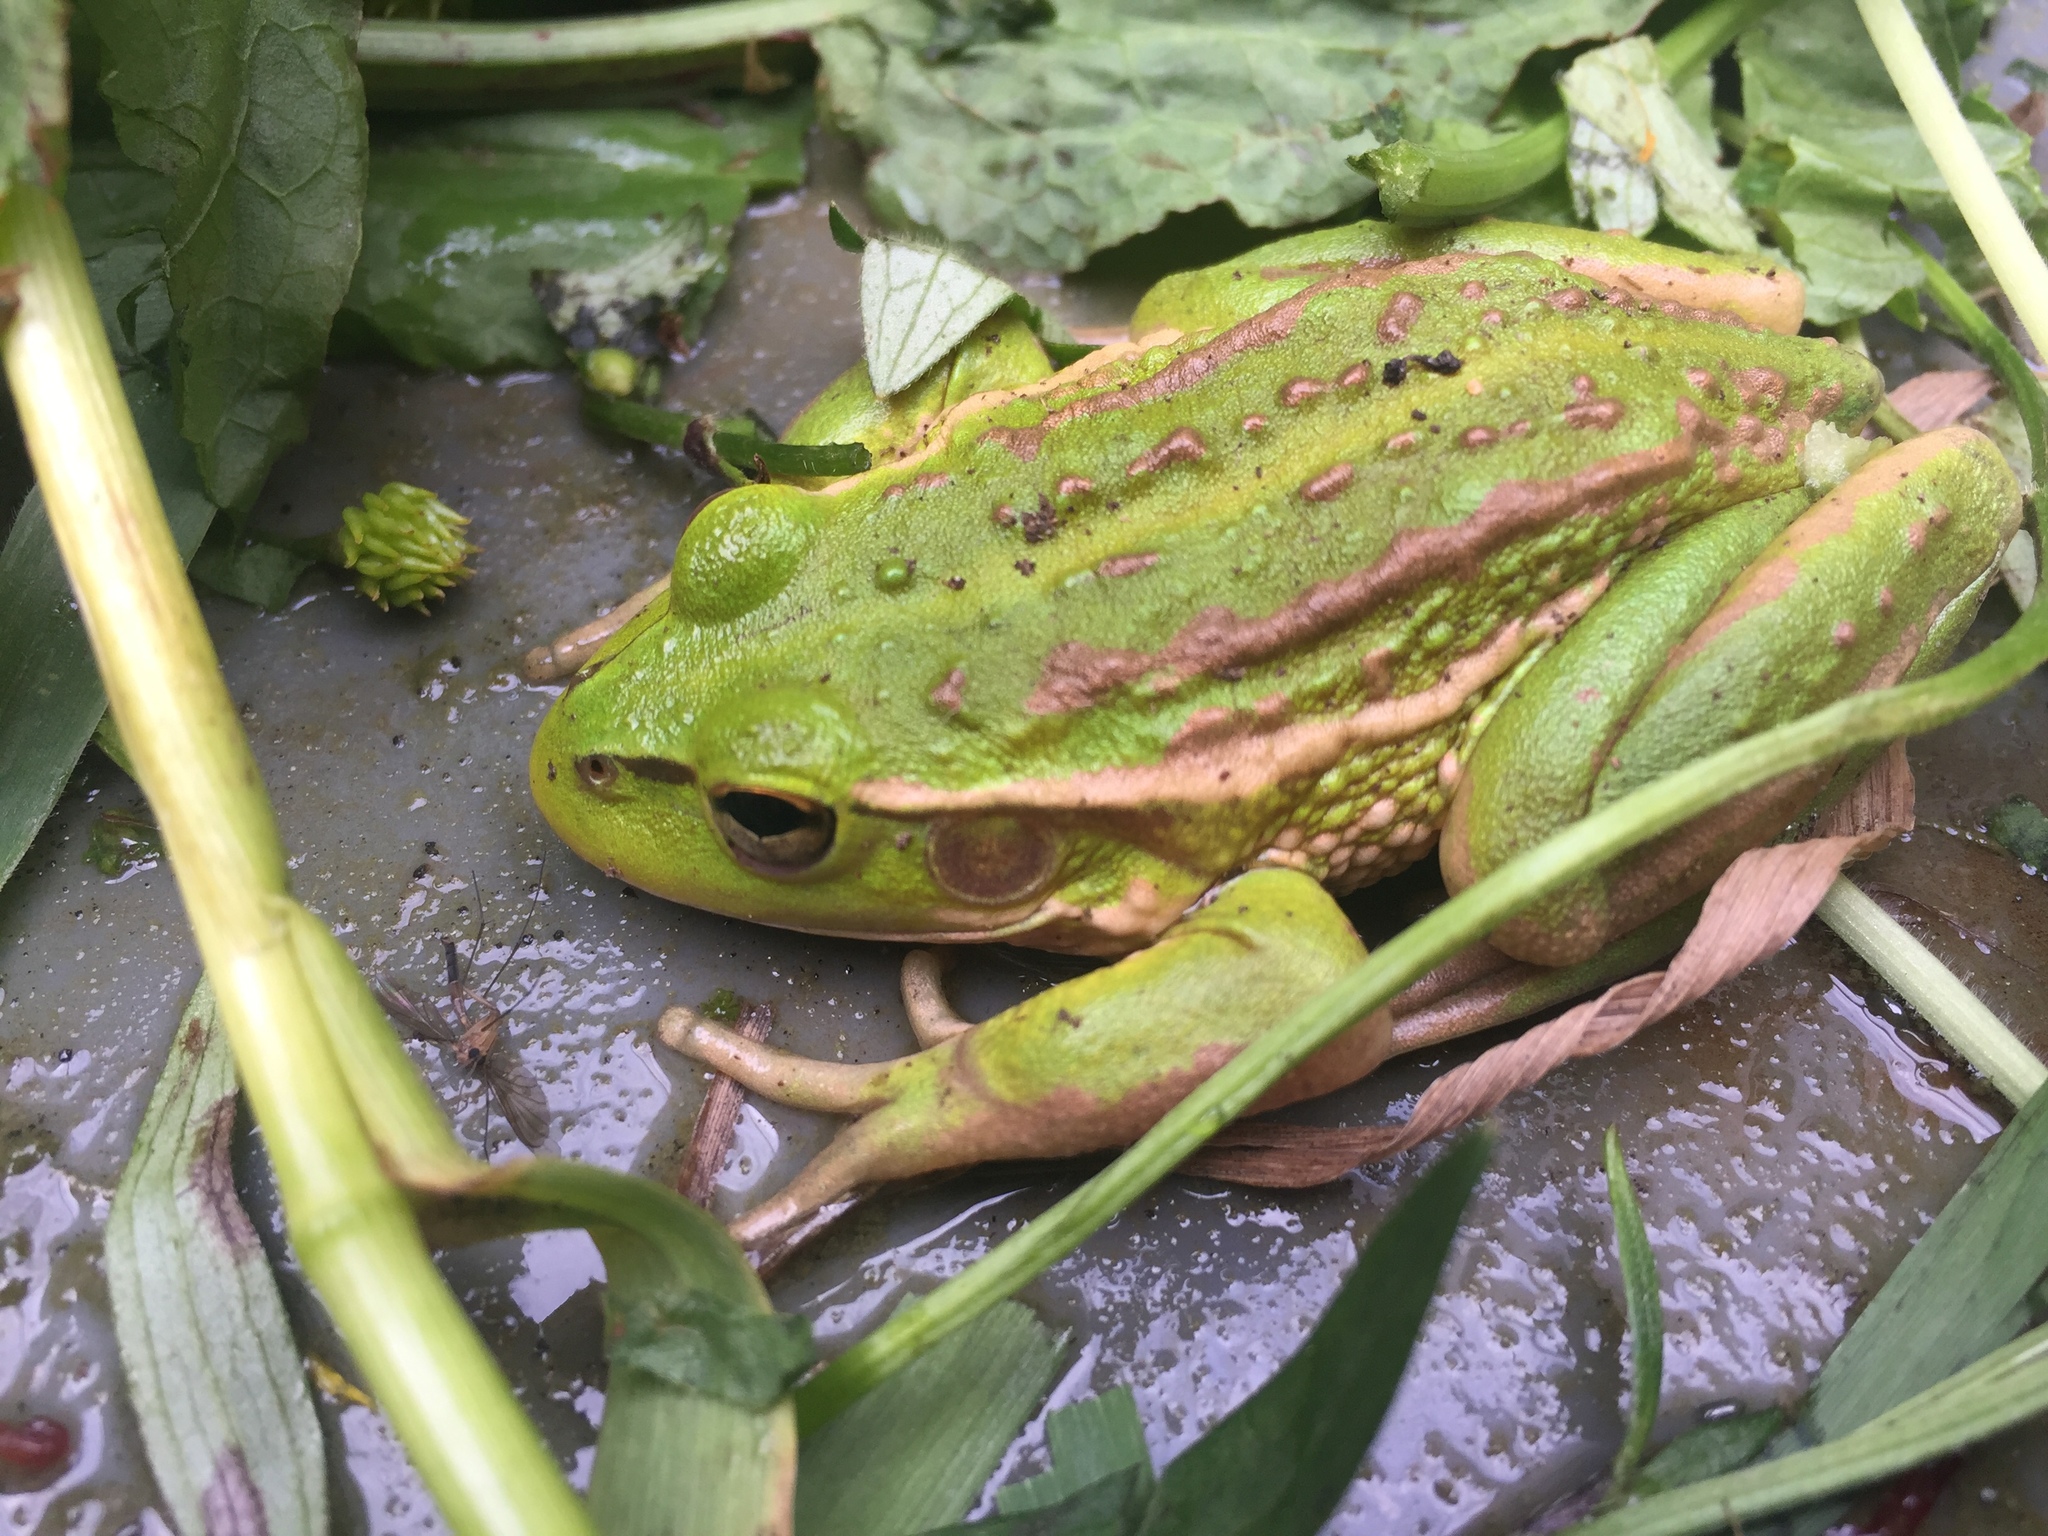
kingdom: Animalia
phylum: Chordata
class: Amphibia
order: Anura
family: Pelodryadidae
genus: Ranoidea
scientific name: Ranoidea raniformis
